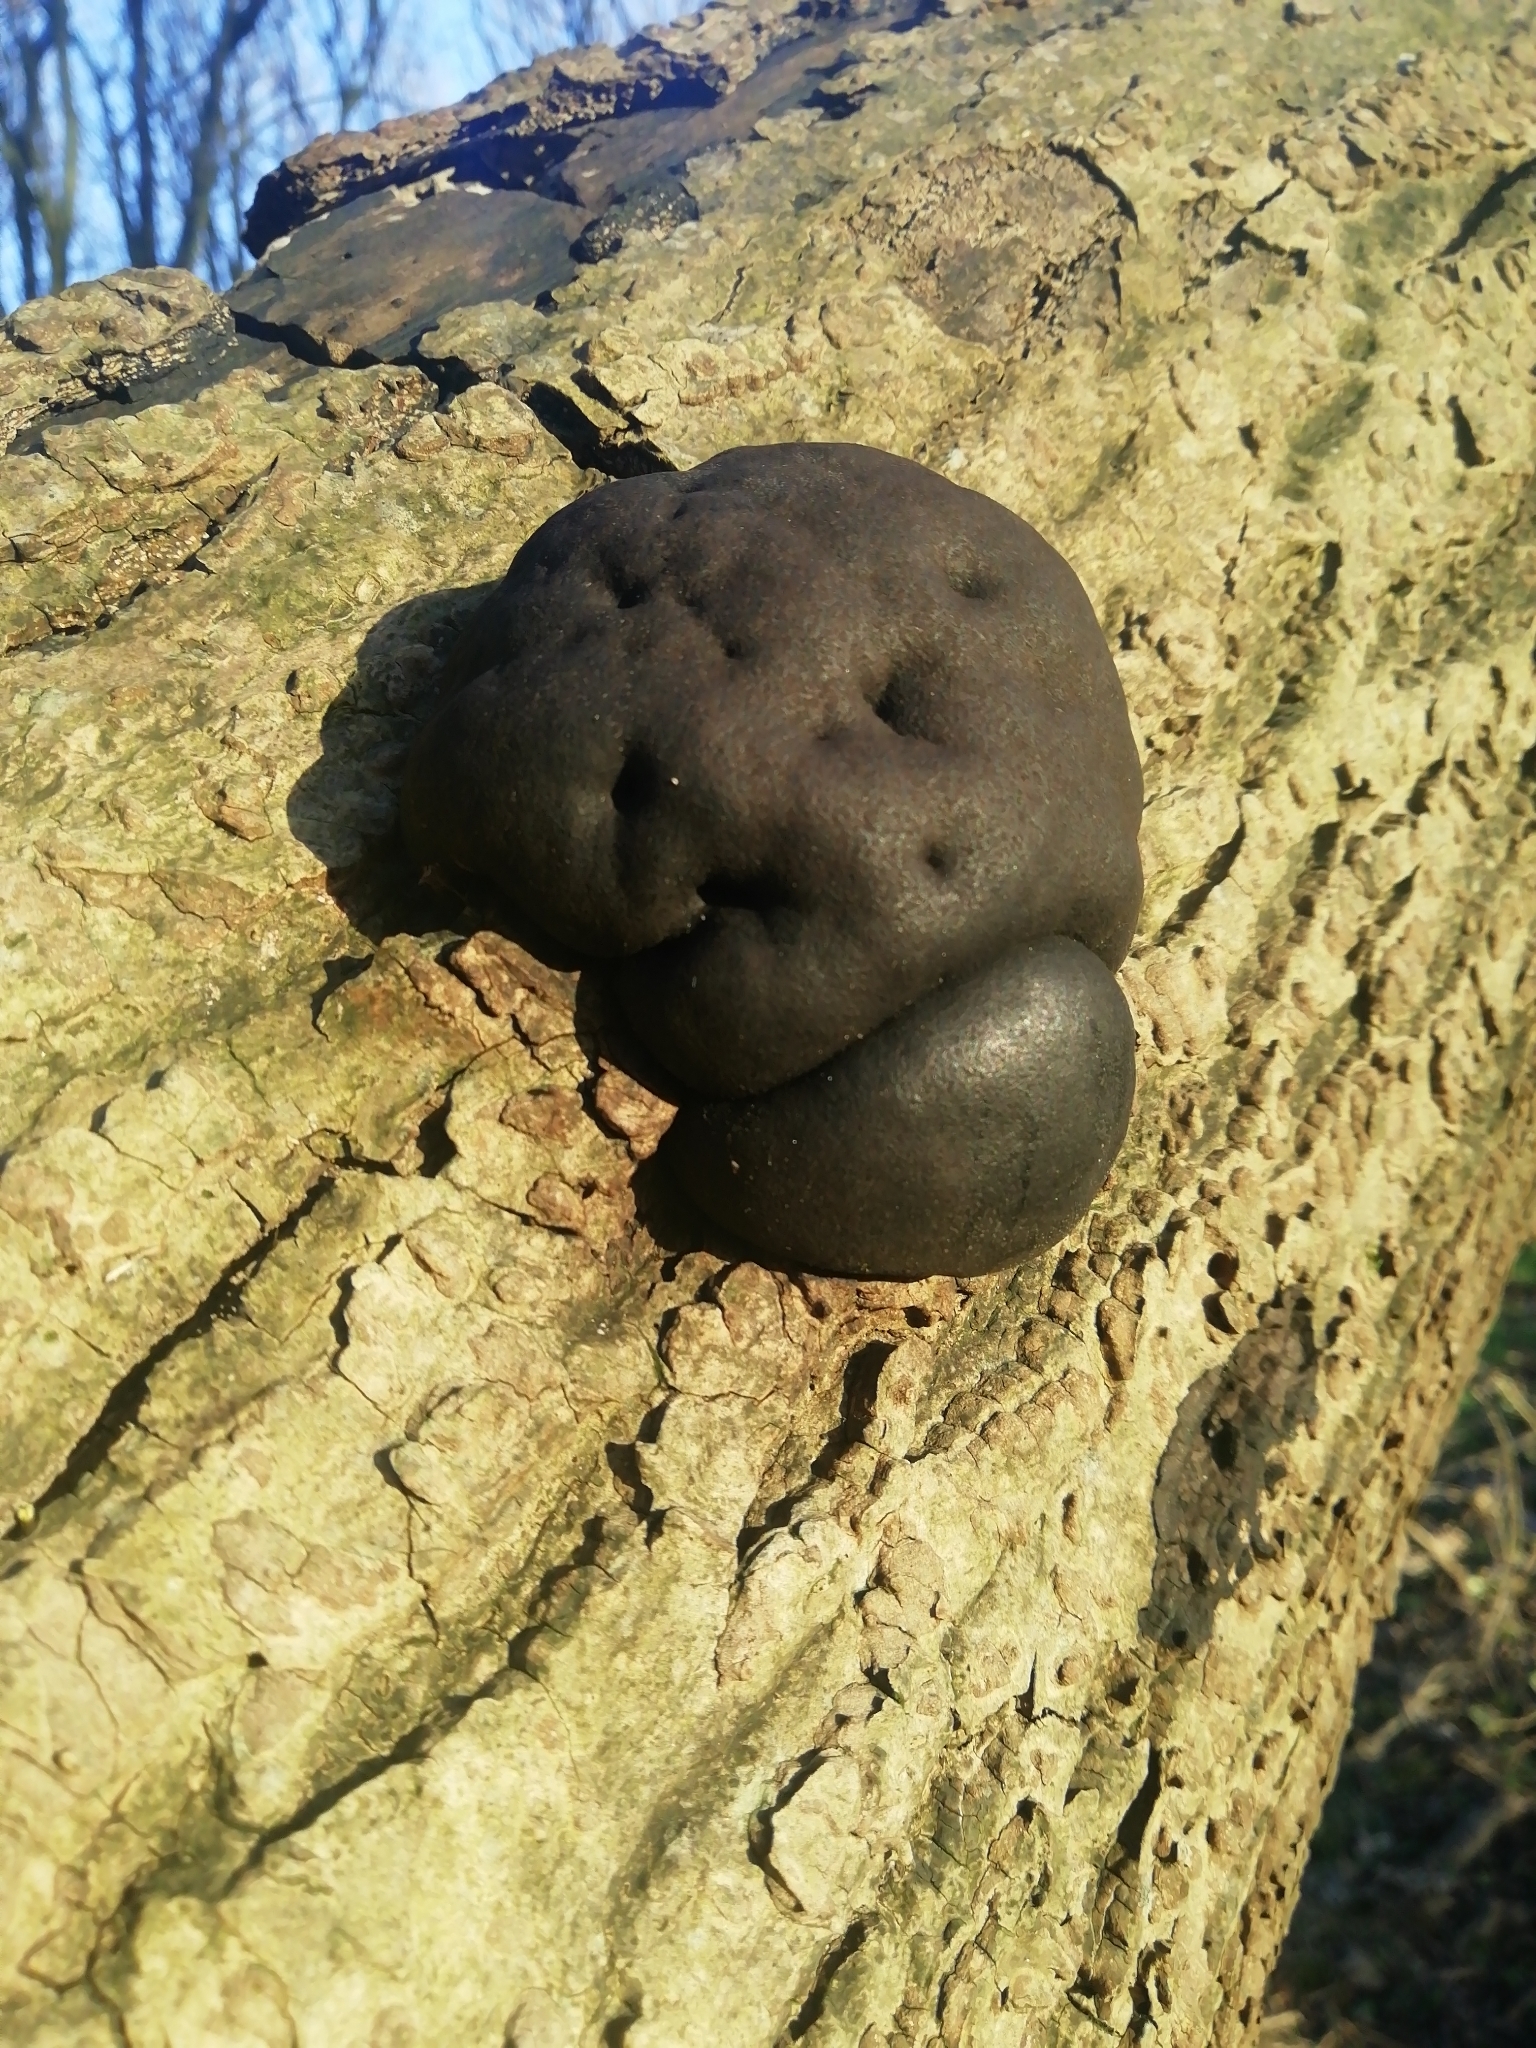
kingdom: Fungi
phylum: Ascomycota
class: Sordariomycetes
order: Xylariales
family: Hypoxylaceae
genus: Daldinia
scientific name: Daldinia concentrica
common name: Cramp balls
